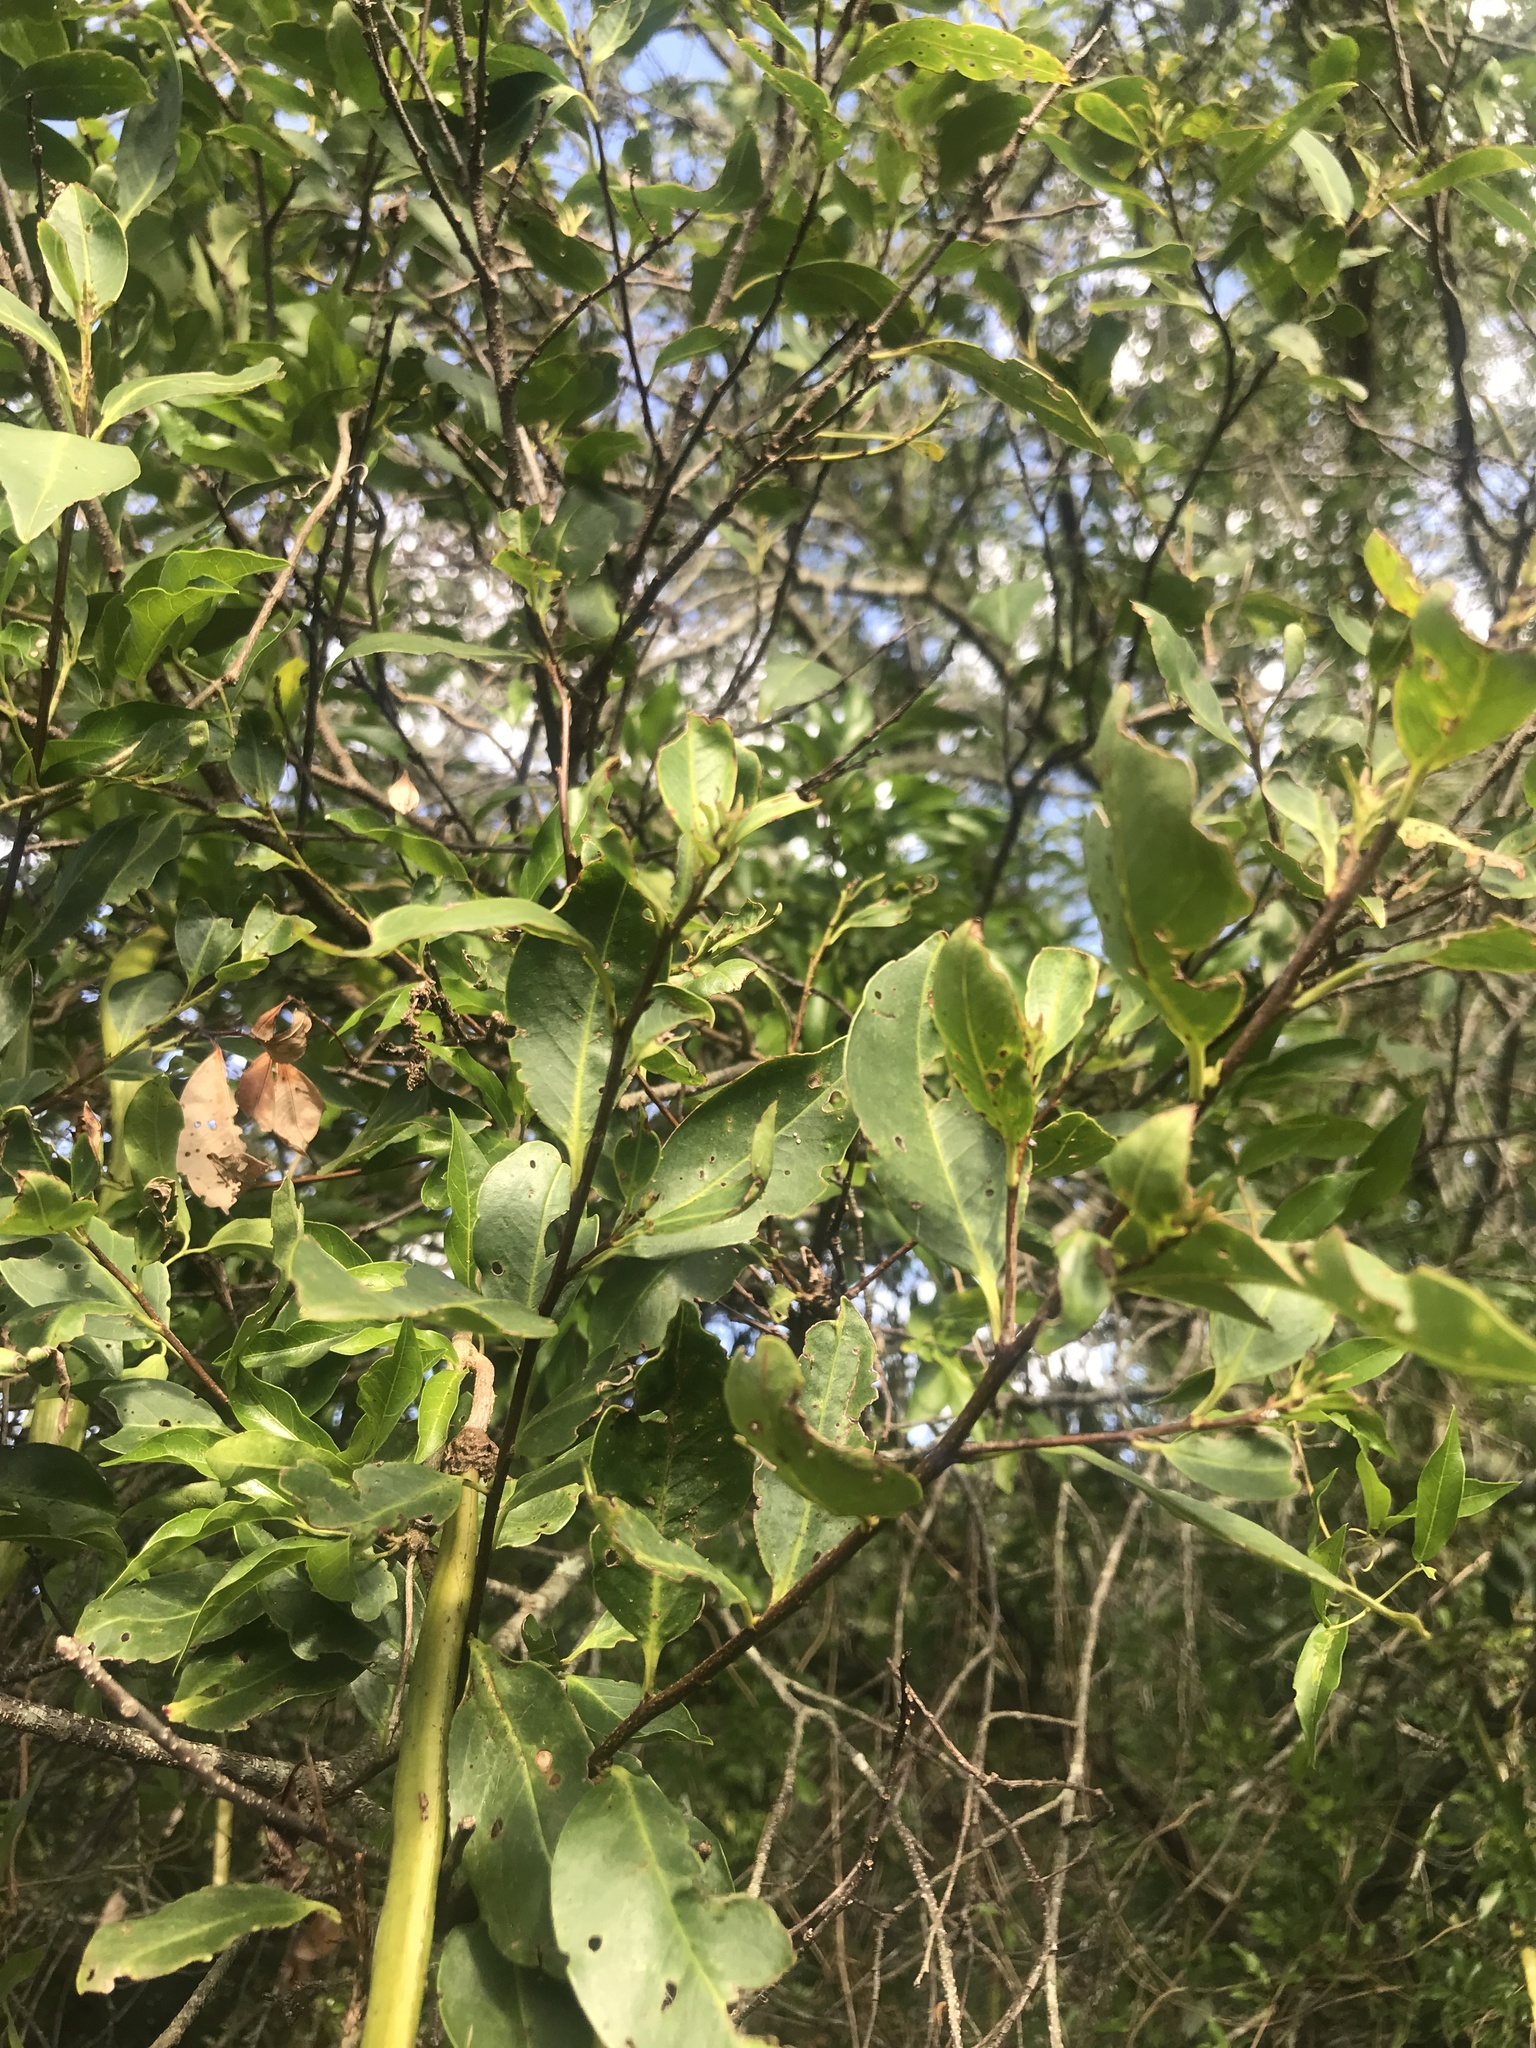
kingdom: Plantae
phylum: Tracheophyta
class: Magnoliopsida
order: Lamiales
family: Bignoniaceae
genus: Dolichandra
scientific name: Dolichandra unguis-cati
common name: Catclaw vine
